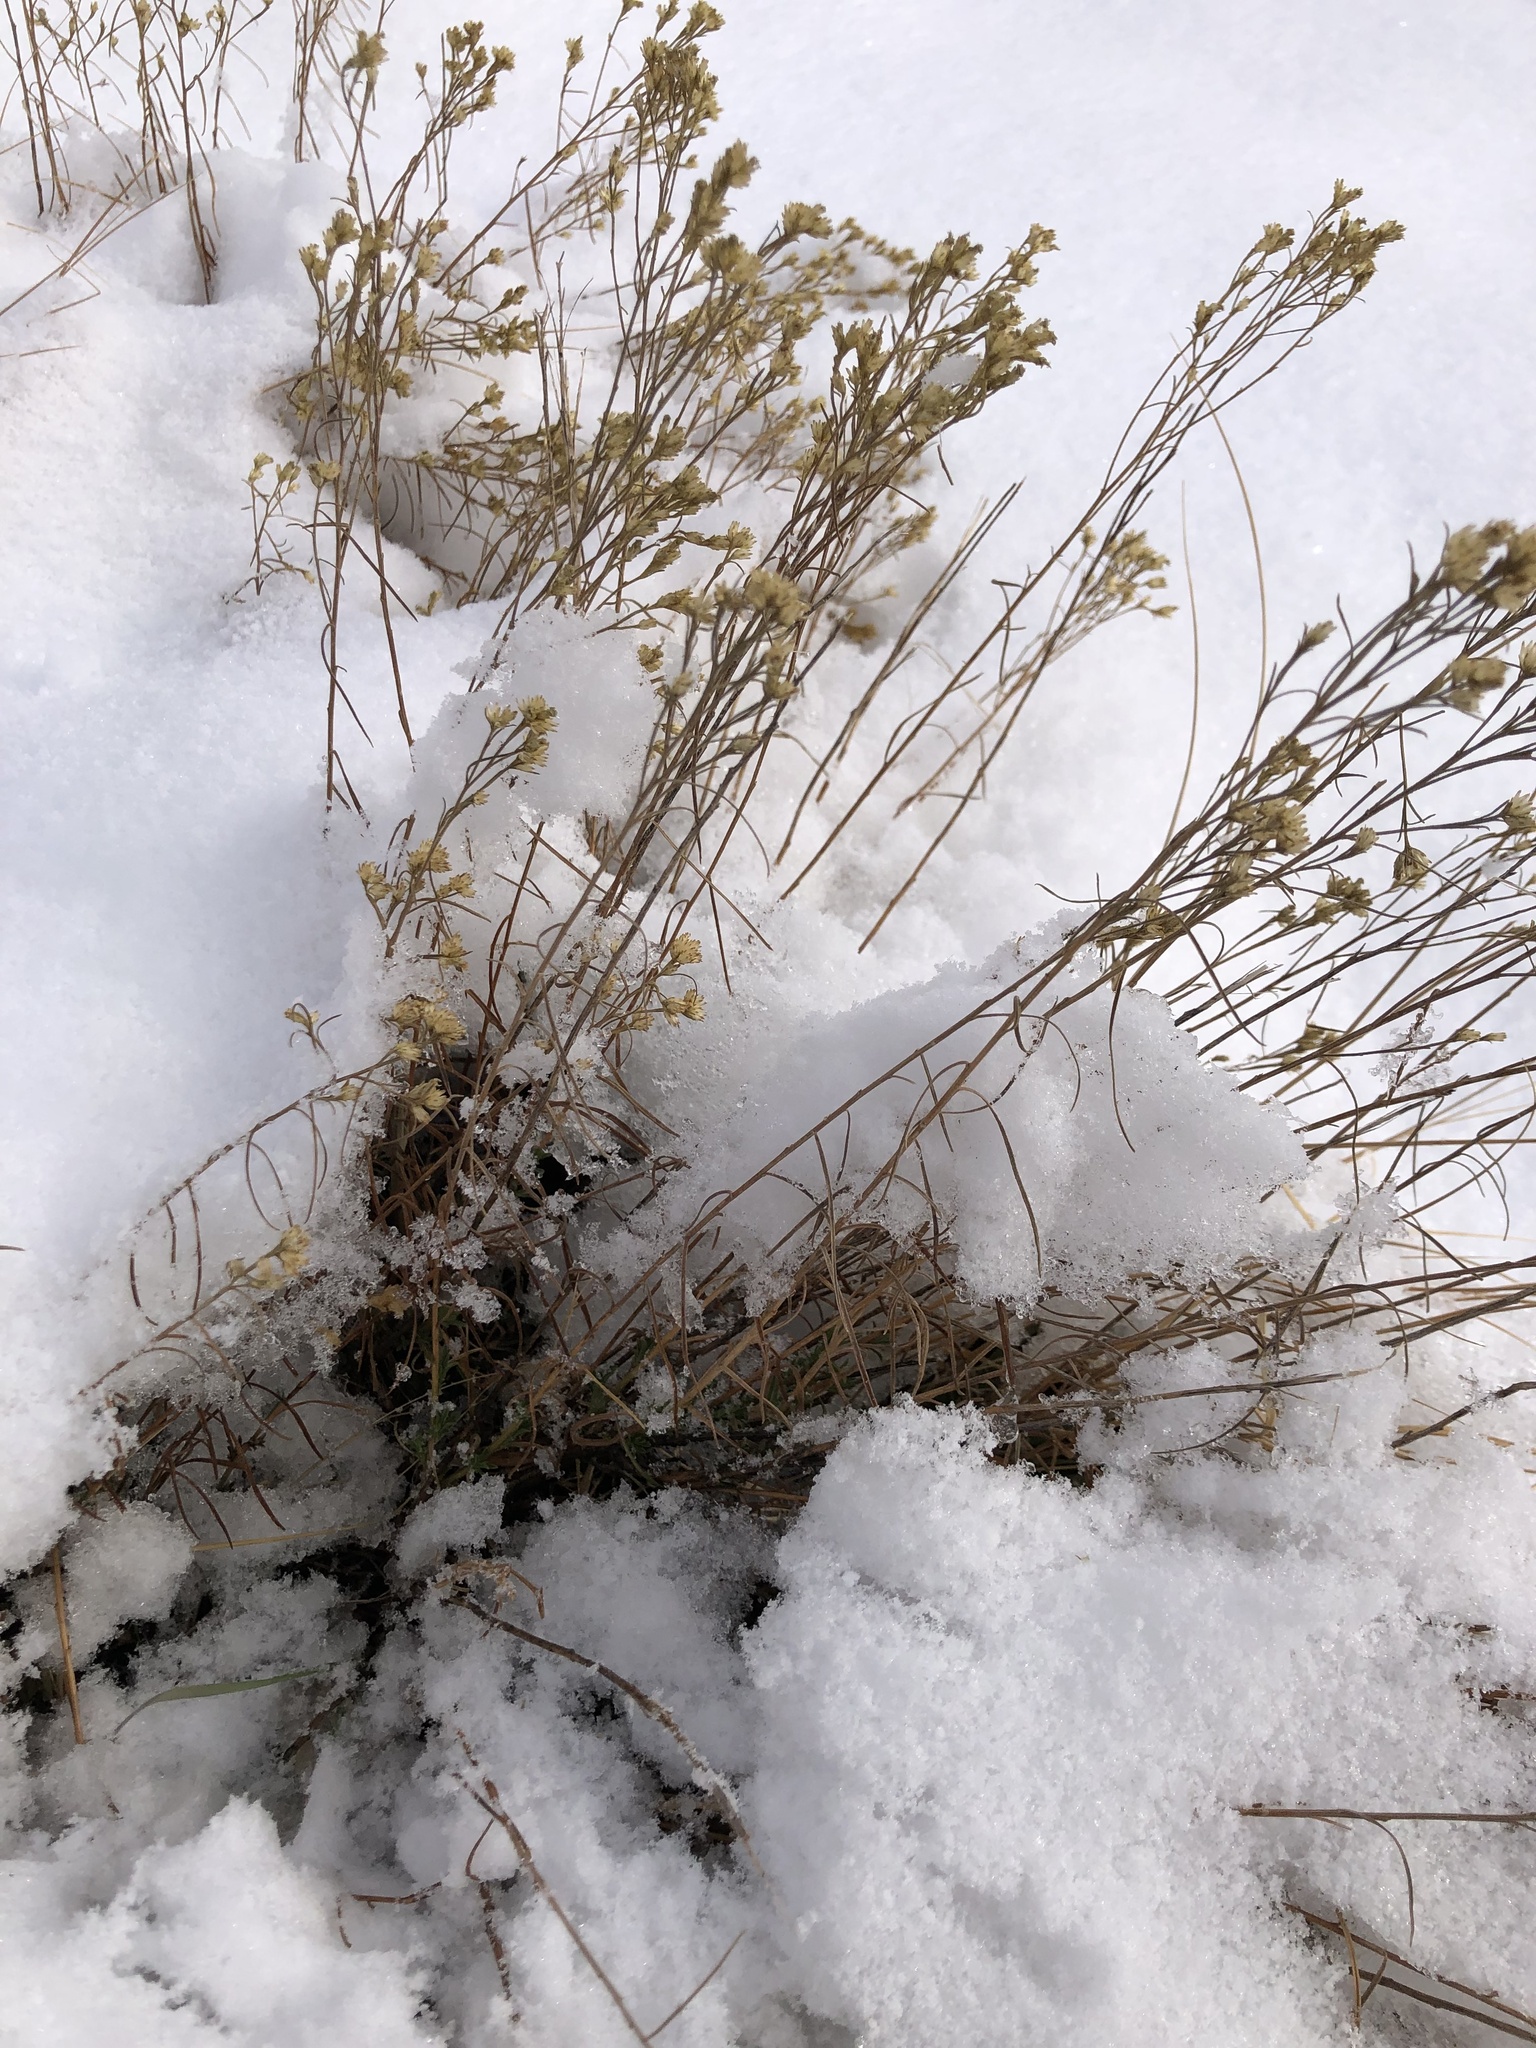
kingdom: Plantae
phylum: Tracheophyta
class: Magnoliopsida
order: Asterales
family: Asteraceae
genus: Gutierrezia
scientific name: Gutierrezia sarothrae
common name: Broom snakeweed
